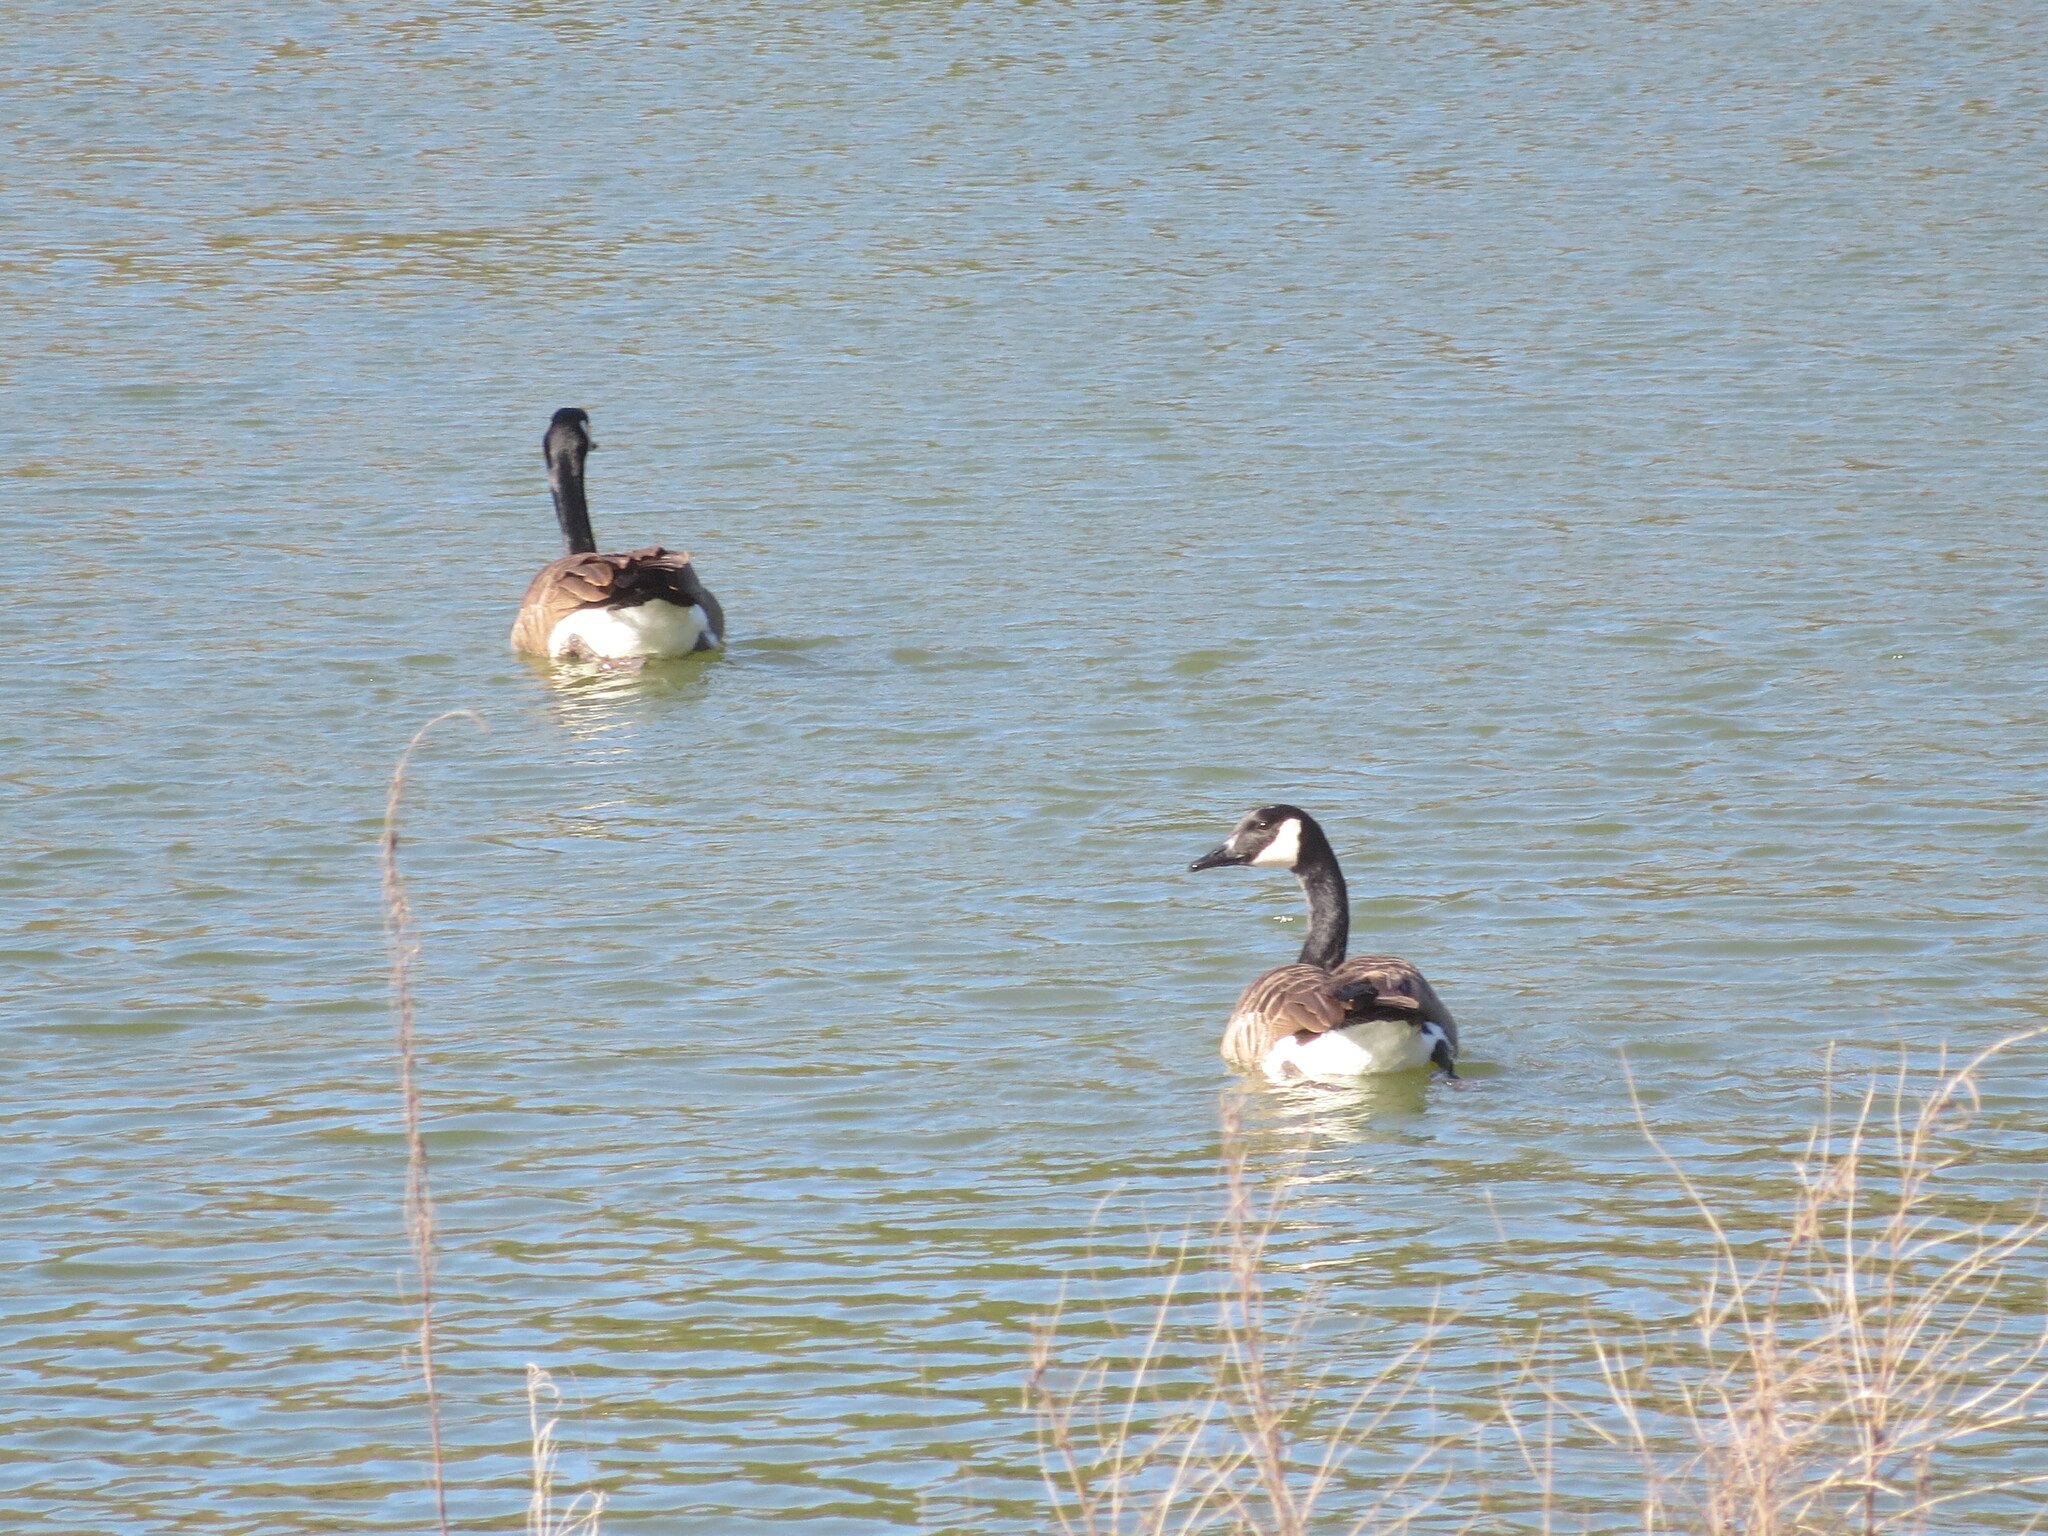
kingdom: Animalia
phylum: Chordata
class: Aves
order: Anseriformes
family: Anatidae
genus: Branta
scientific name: Branta canadensis
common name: Canada goose
